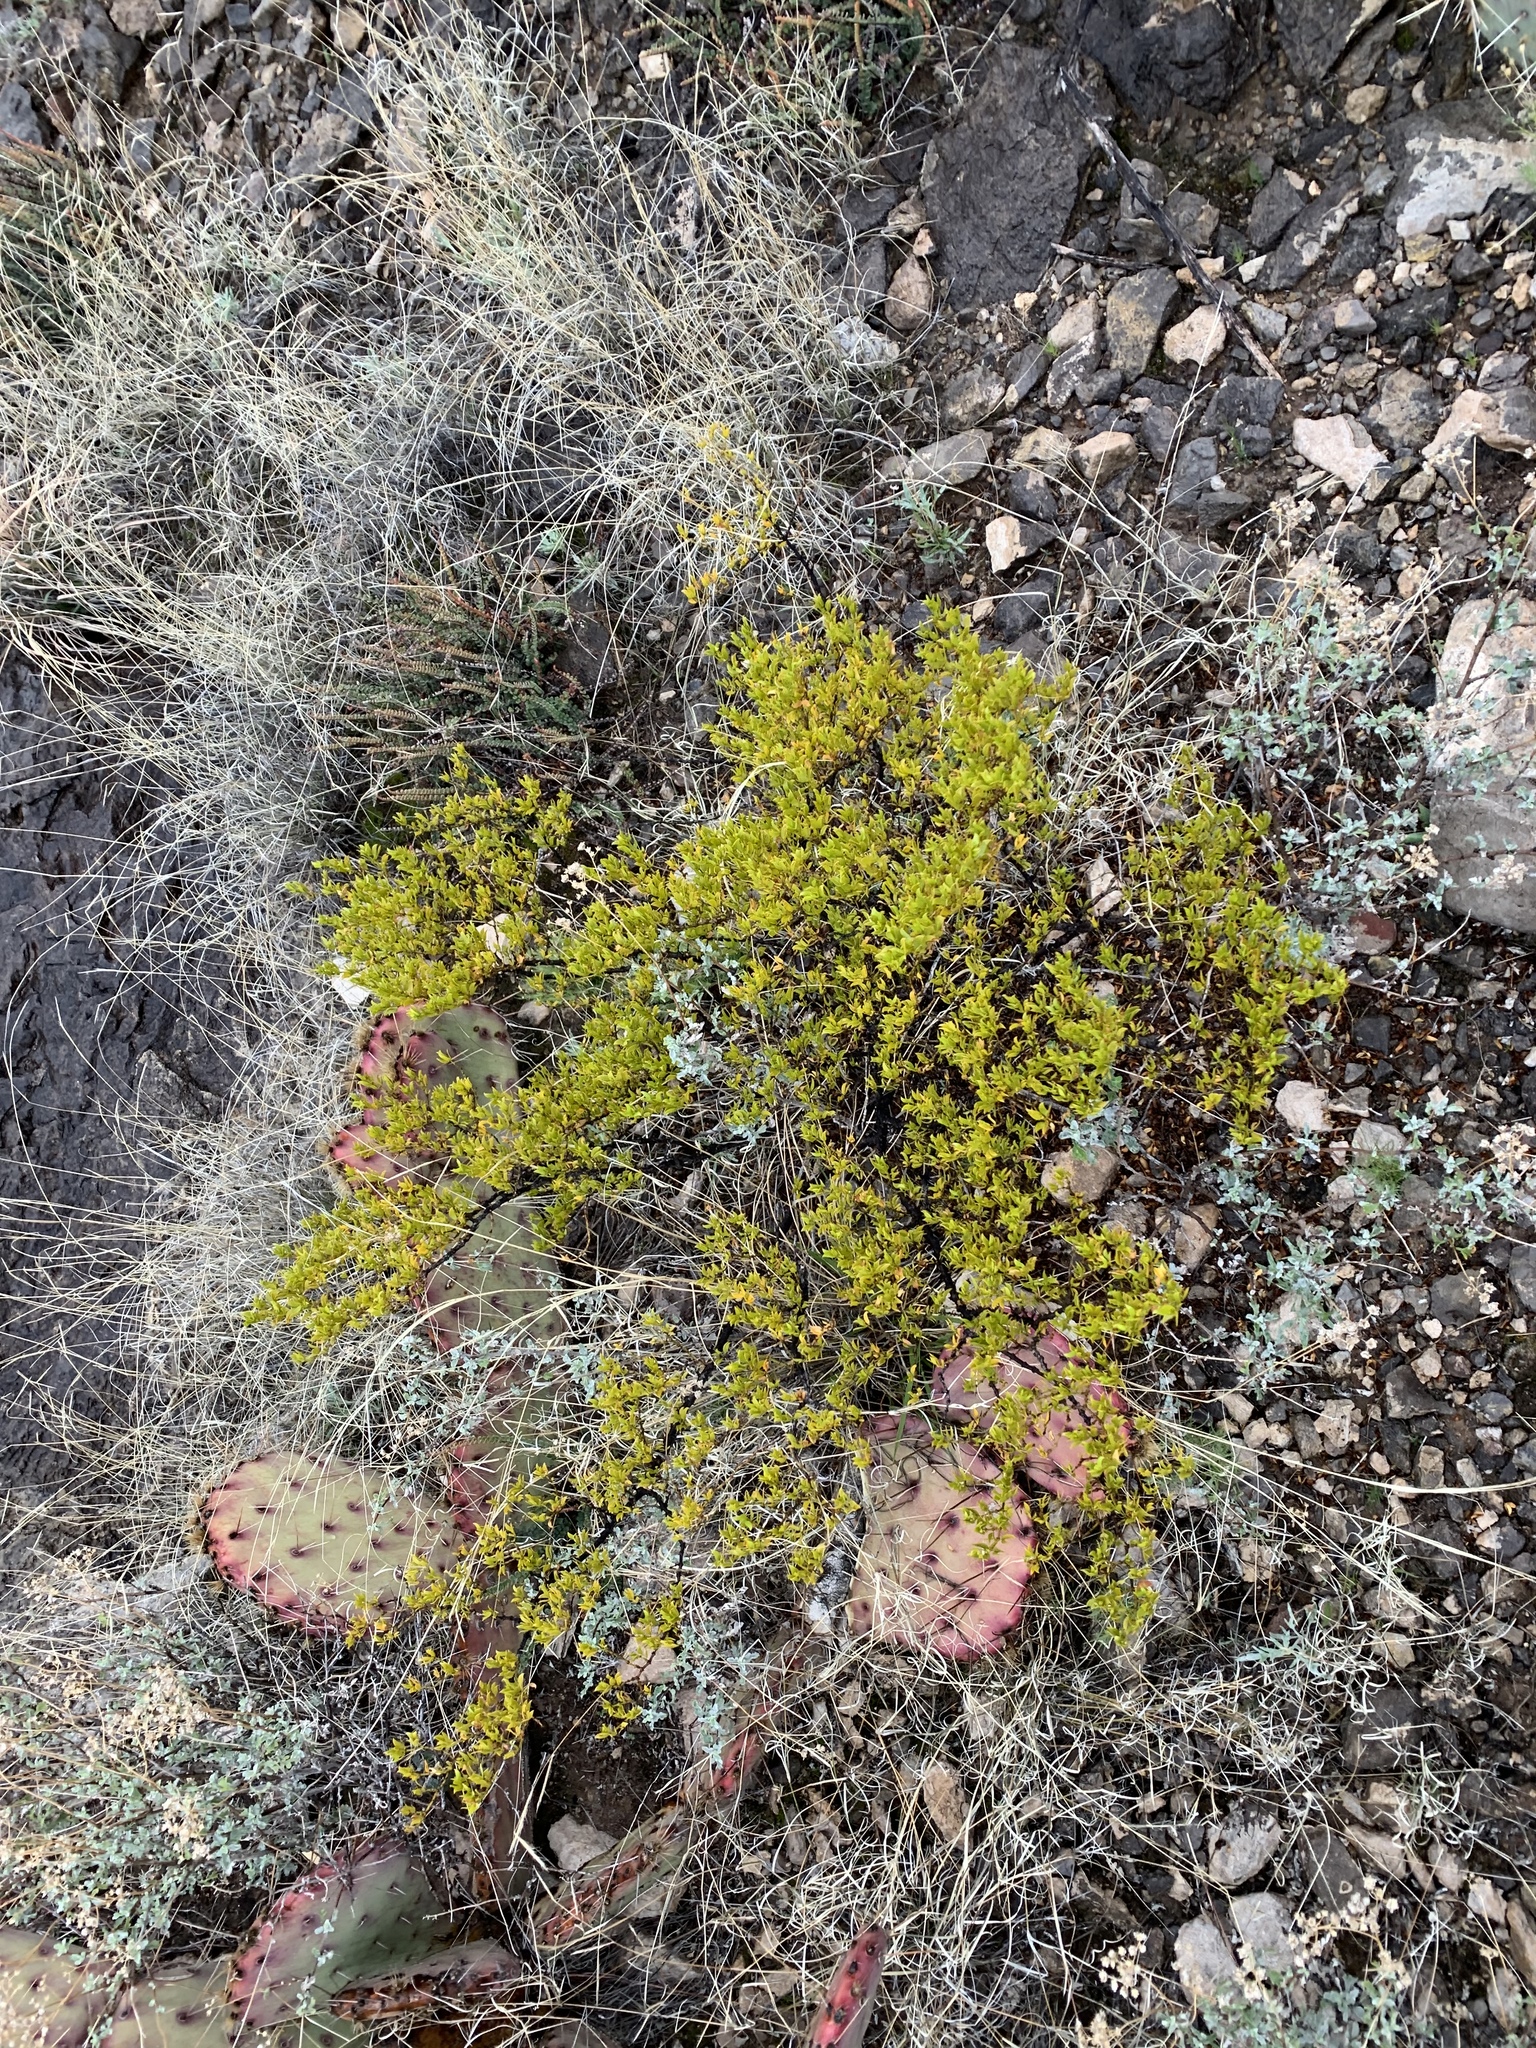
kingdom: Plantae
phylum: Tracheophyta
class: Magnoliopsida
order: Zygophyllales
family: Zygophyllaceae
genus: Larrea
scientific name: Larrea tridentata
